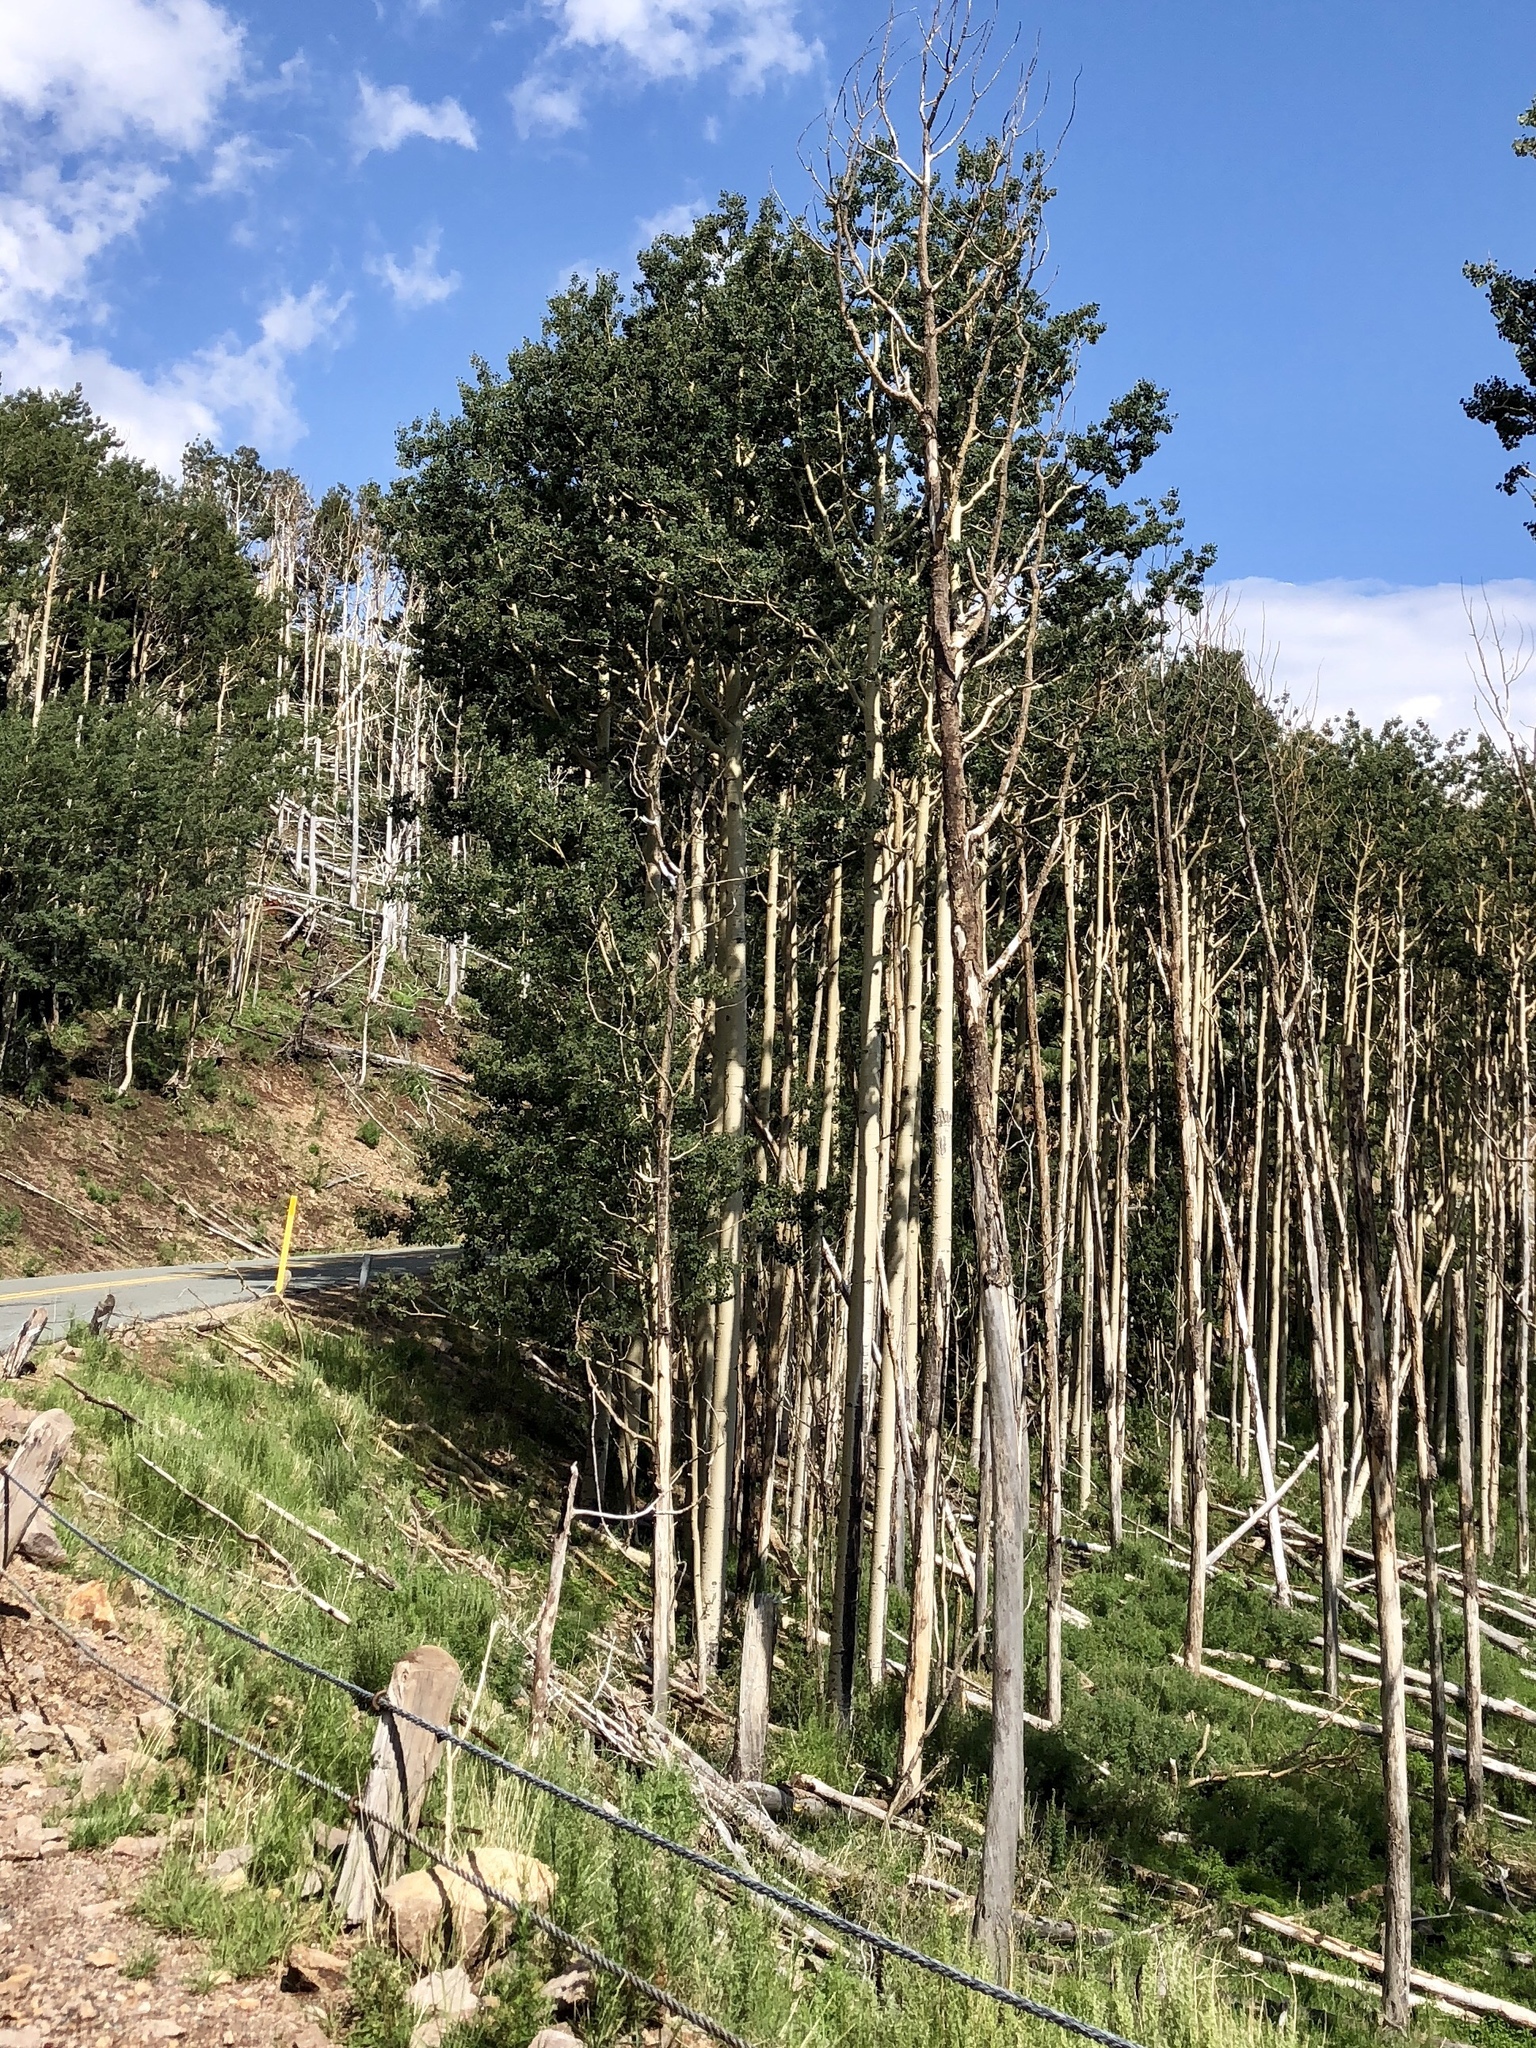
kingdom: Plantae
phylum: Tracheophyta
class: Magnoliopsida
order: Malpighiales
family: Salicaceae
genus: Populus
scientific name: Populus tremuloides
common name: Quaking aspen
